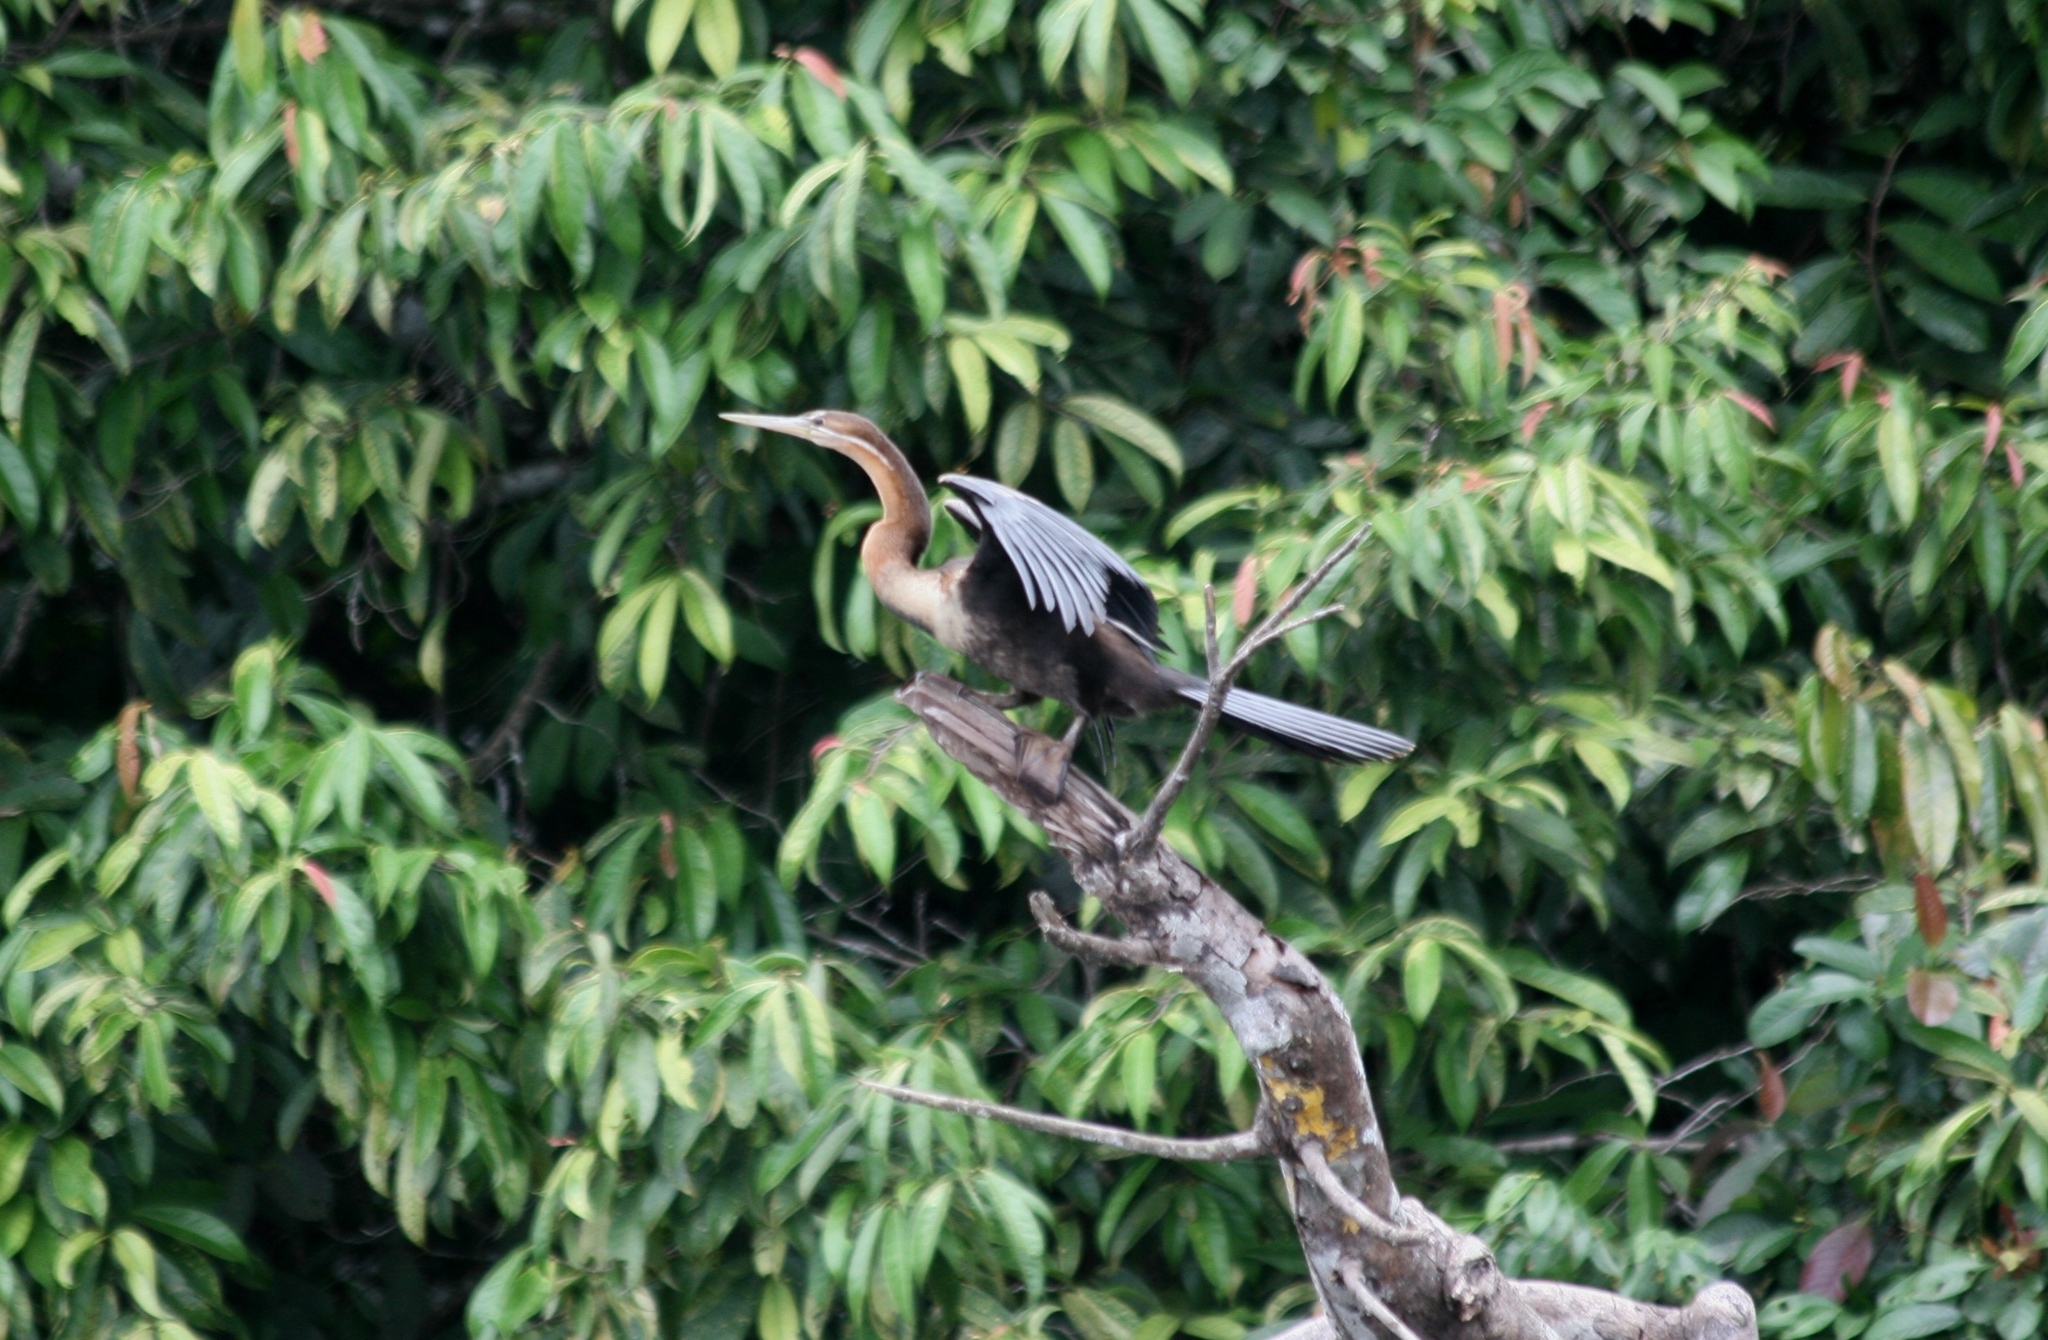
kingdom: Animalia
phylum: Chordata
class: Aves
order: Suliformes
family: Anhingidae
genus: Anhinga
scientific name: Anhinga rufa
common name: African darter
